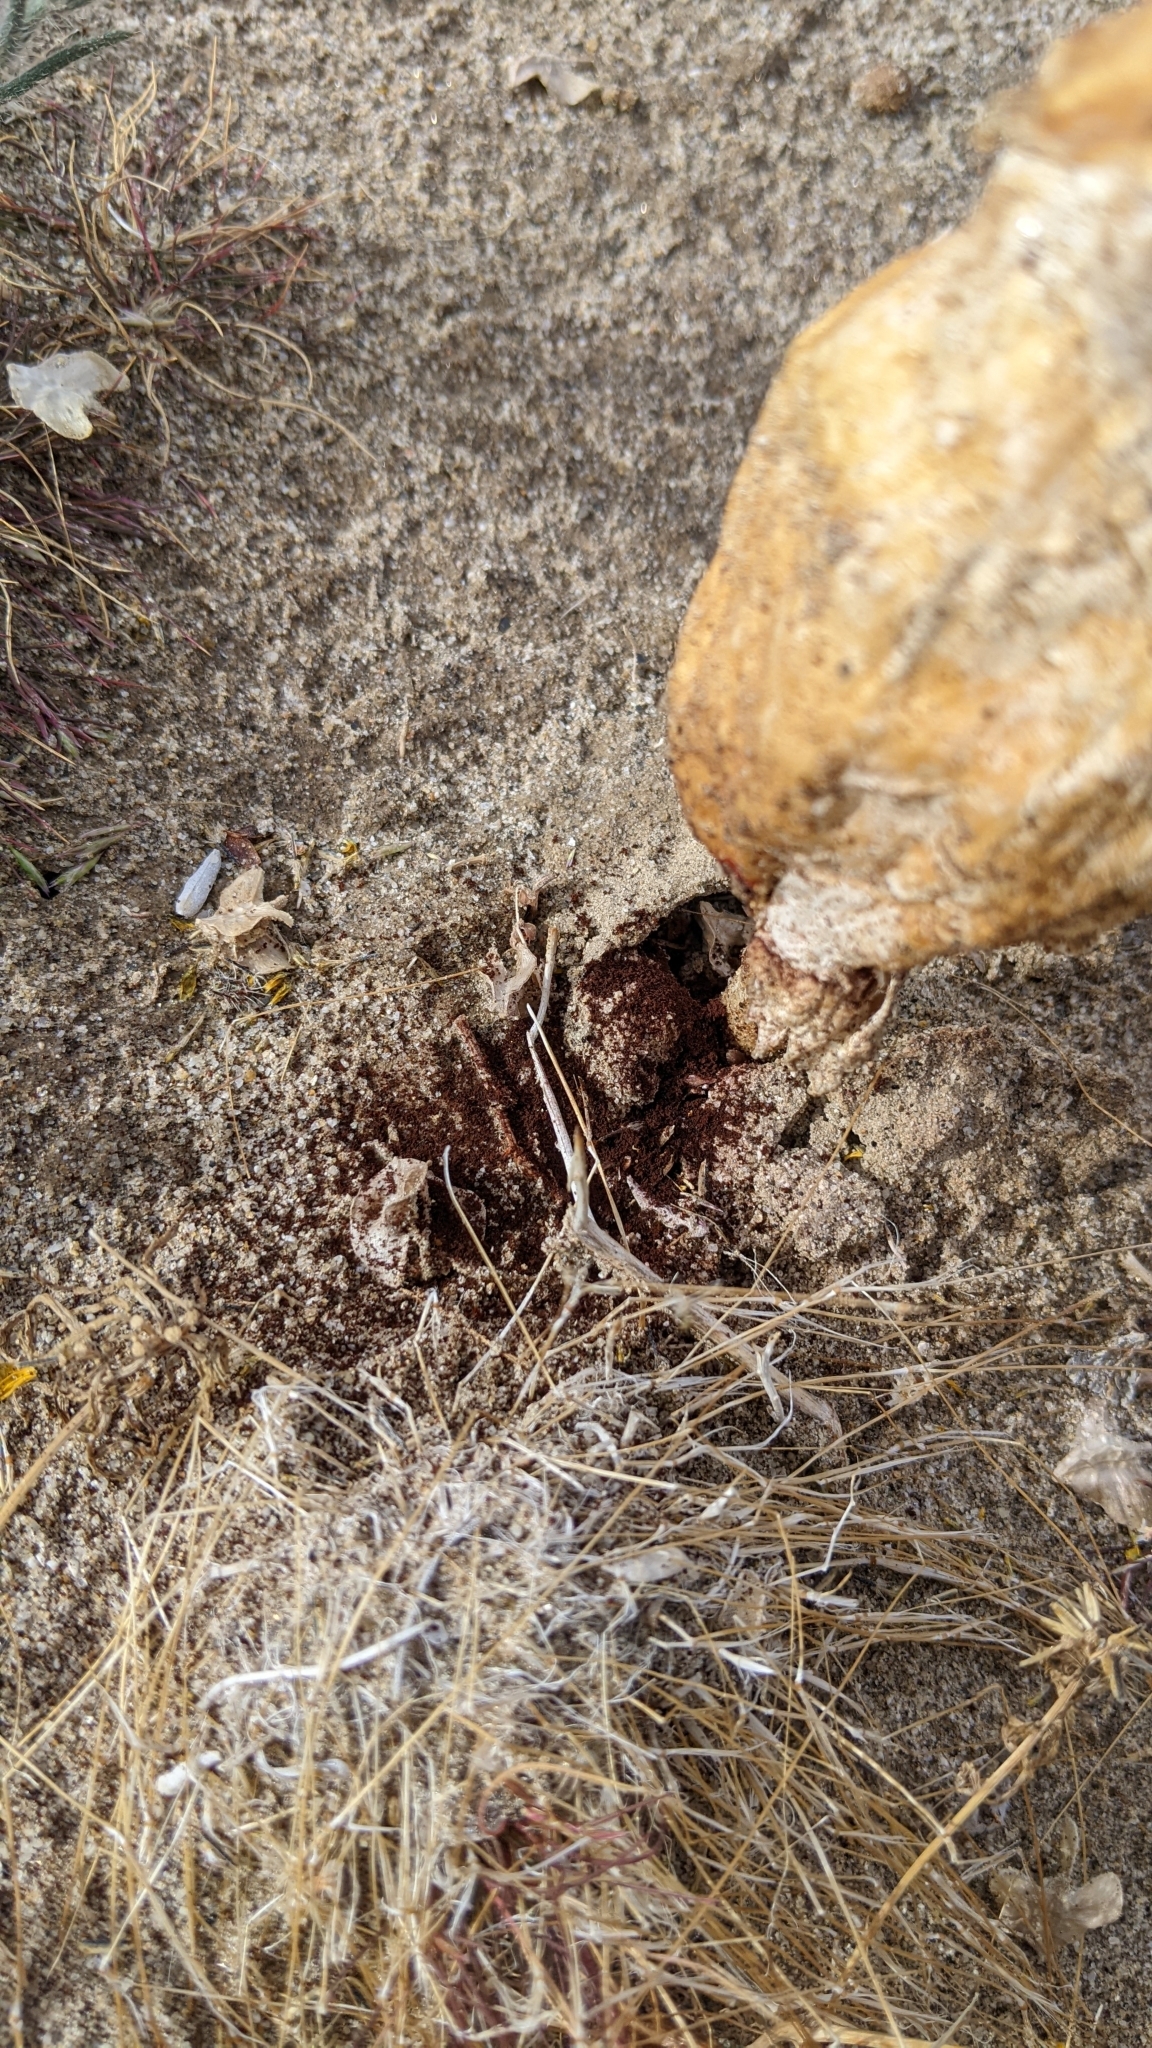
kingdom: Fungi
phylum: Basidiomycota
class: Agaricomycetes
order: Agaricales
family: Agaricaceae
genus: Podaxis
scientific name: Podaxis pistillaris
